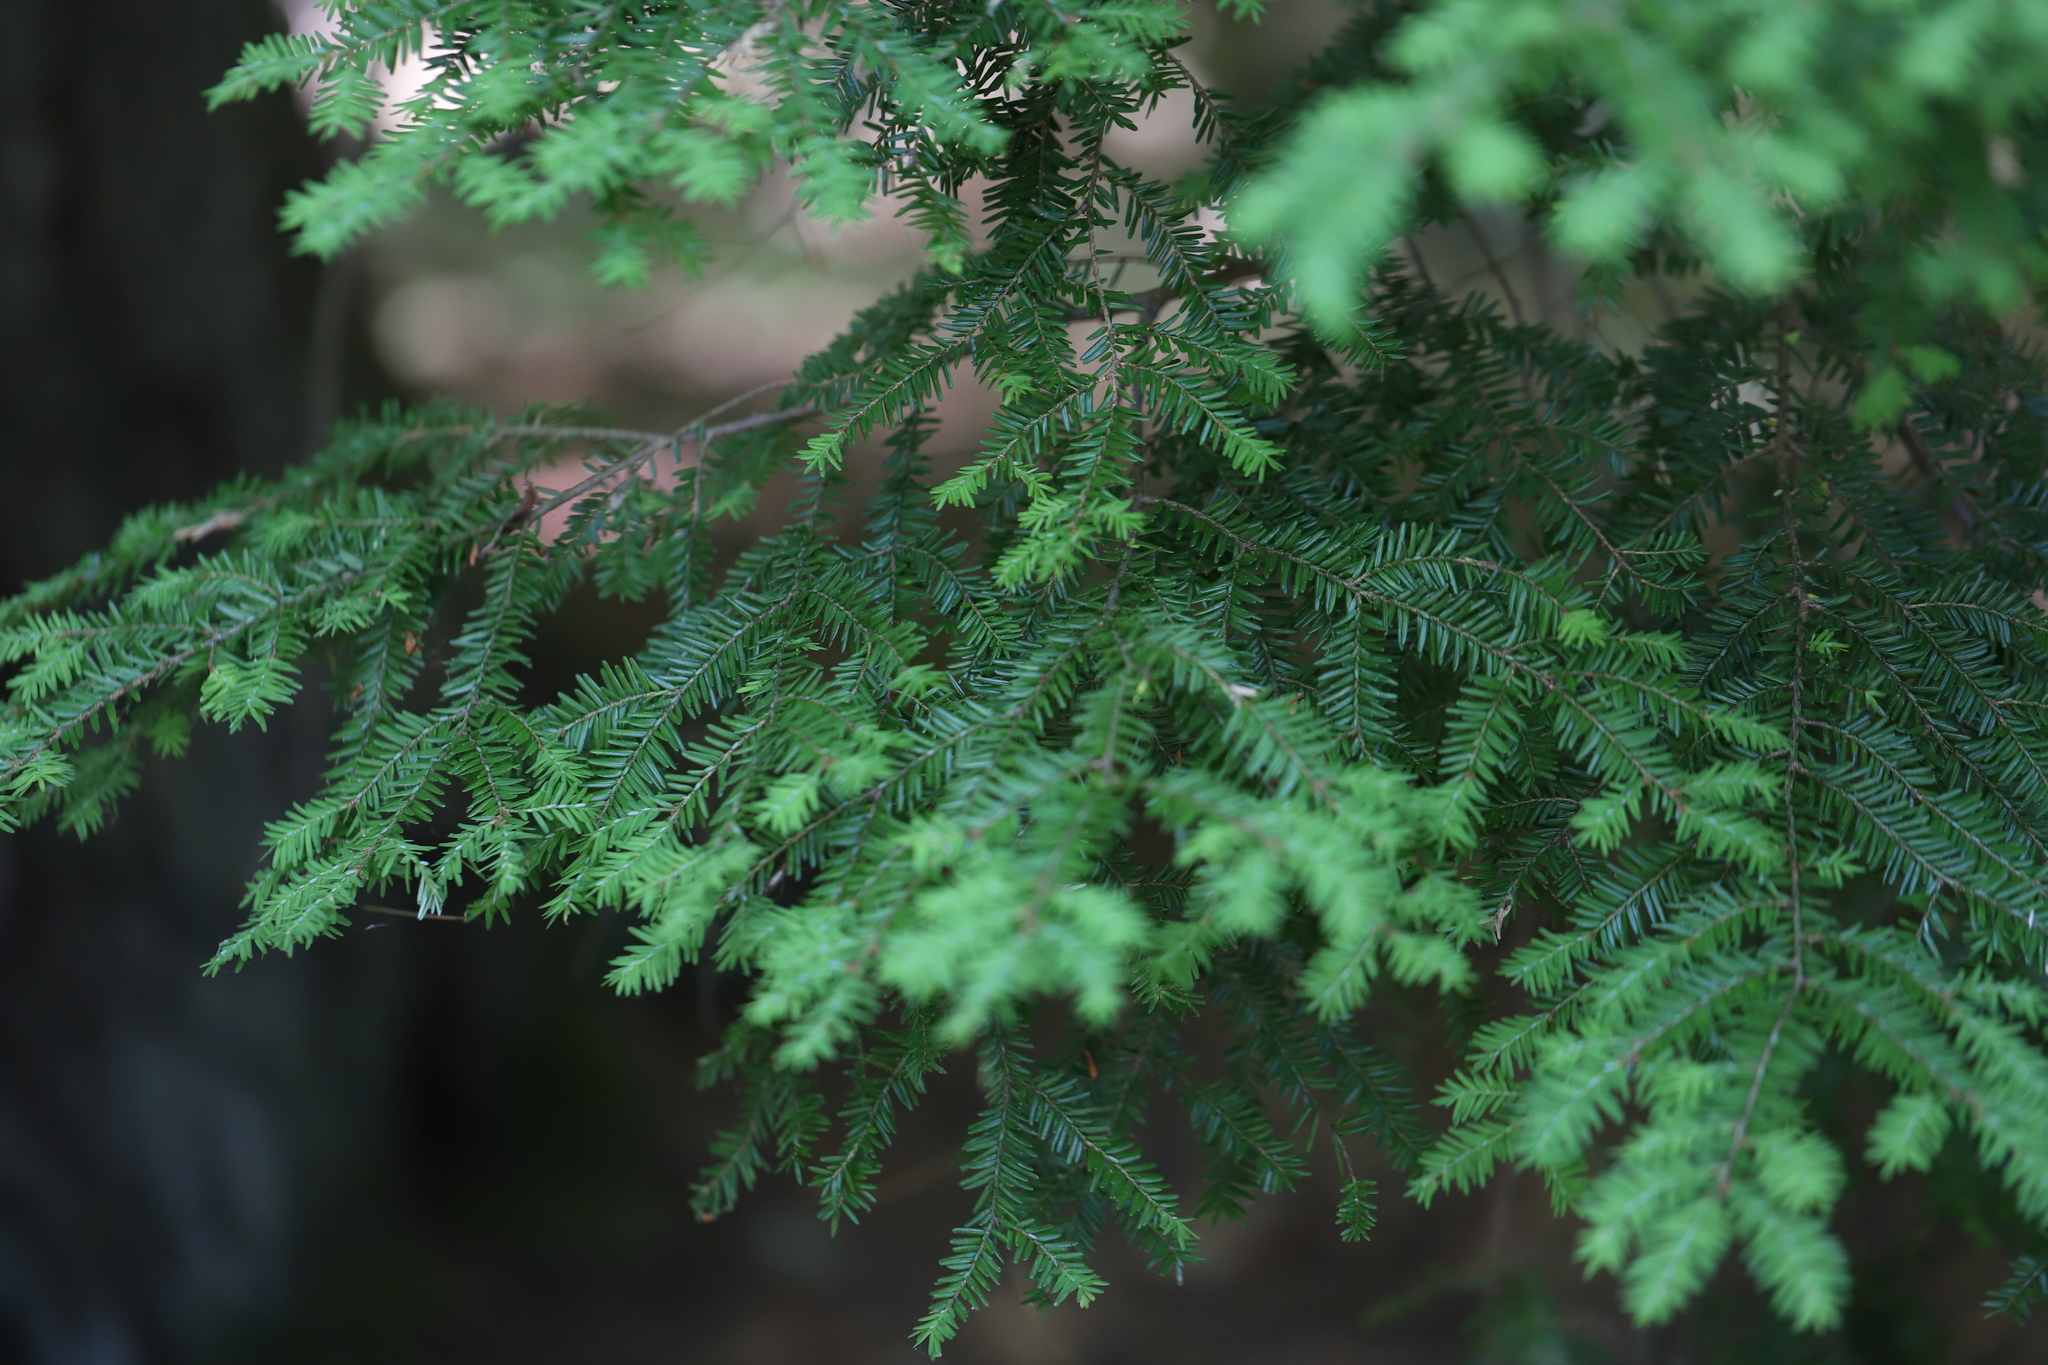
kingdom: Plantae
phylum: Tracheophyta
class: Pinopsida
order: Pinales
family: Pinaceae
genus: Tsuga
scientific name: Tsuga canadensis
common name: Eastern hemlock
